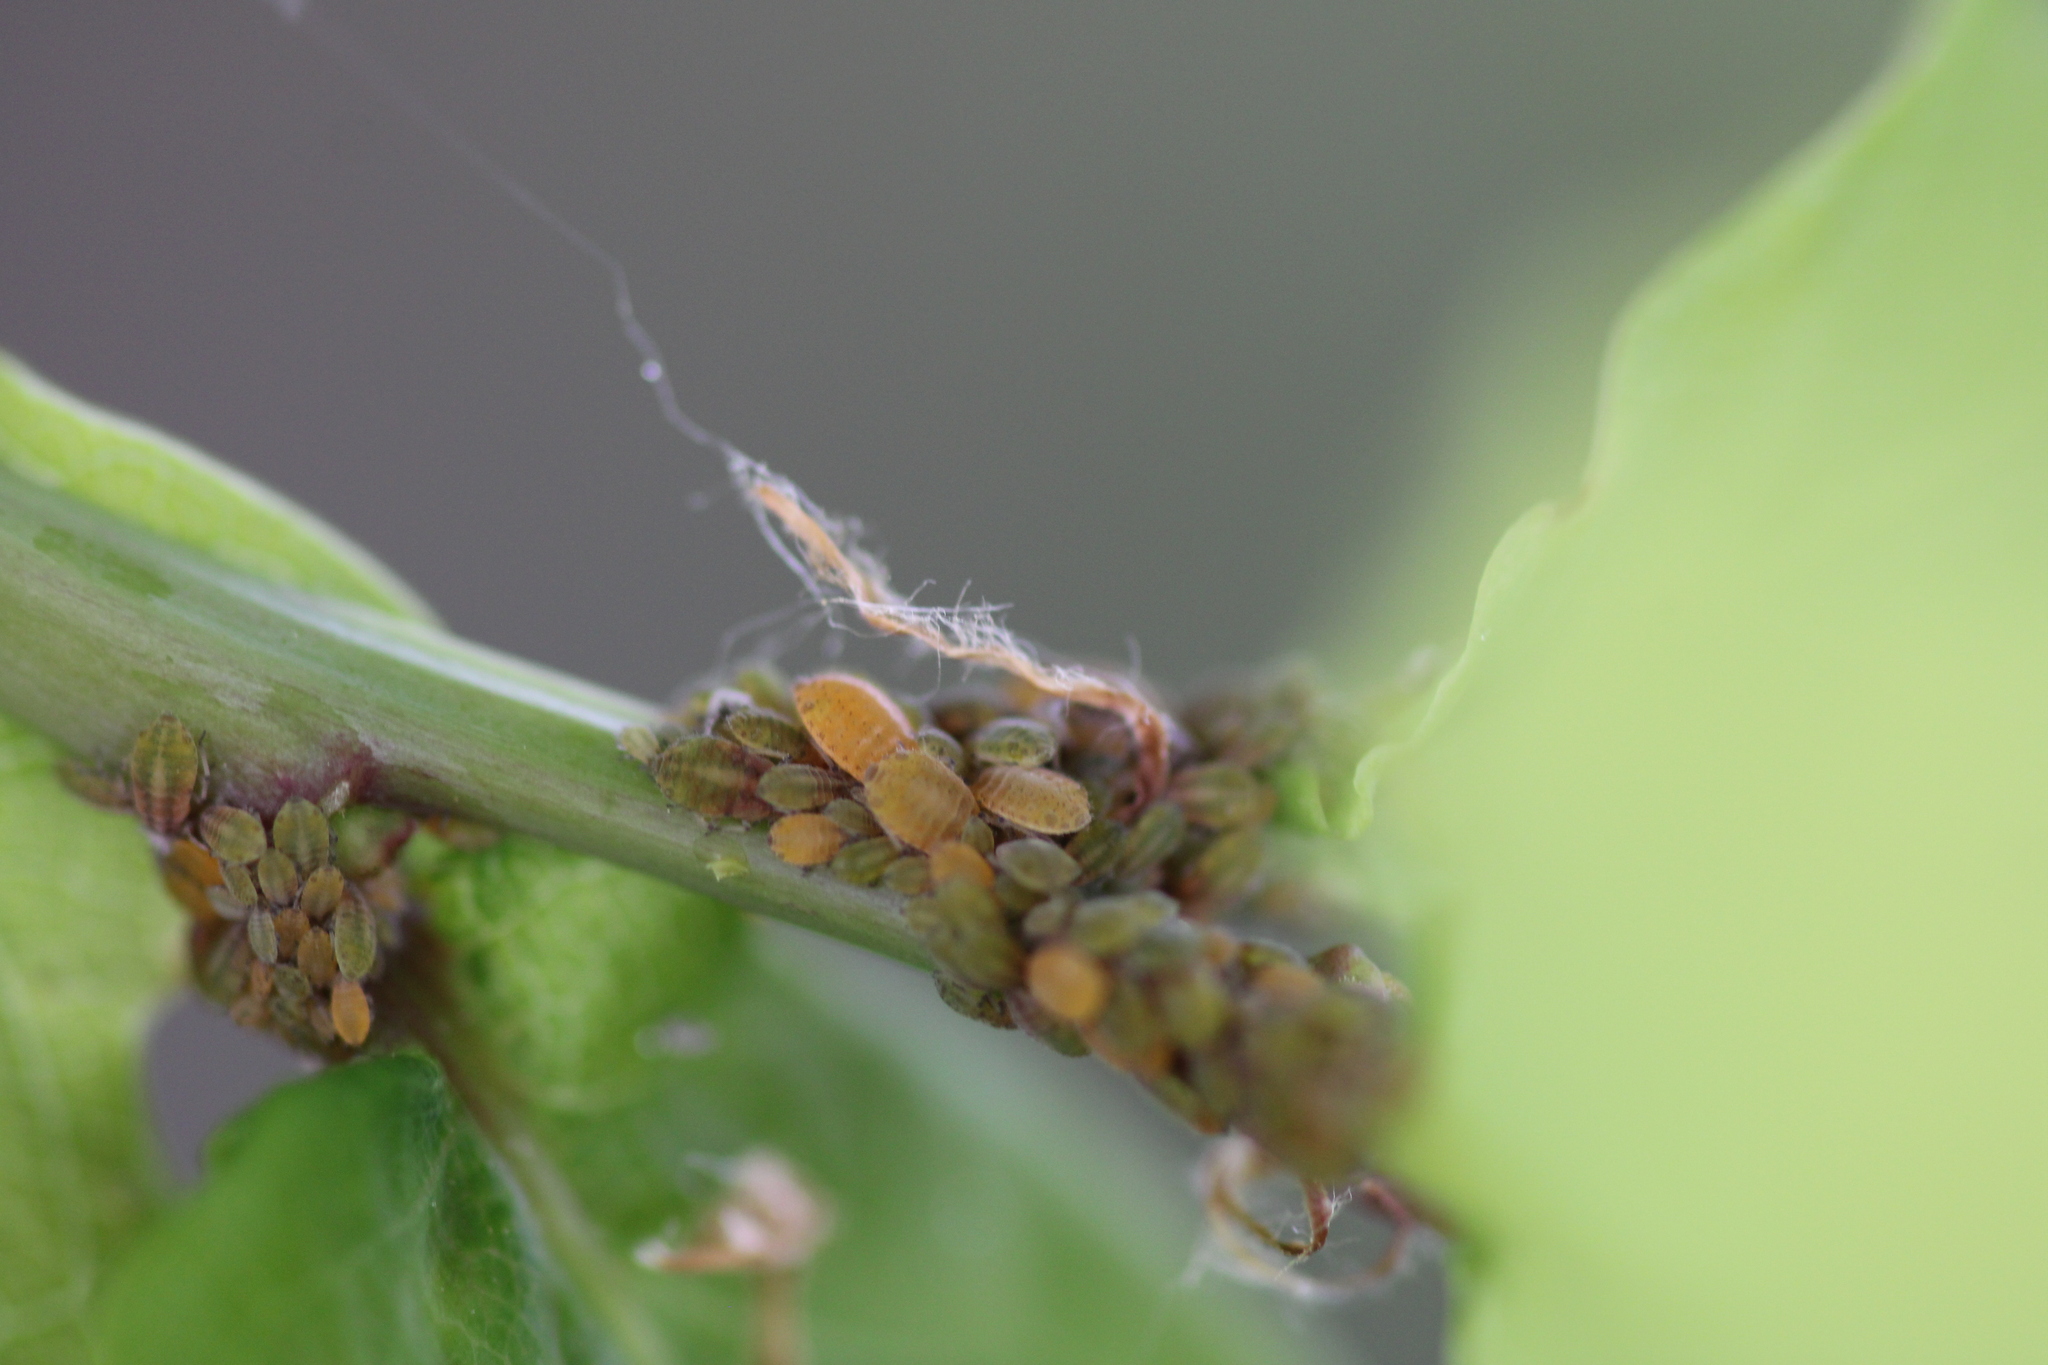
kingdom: Animalia
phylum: Arthropoda
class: Insecta
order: Hemiptera
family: Aphididae
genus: Thelaxes
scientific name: Thelaxes dryophila
